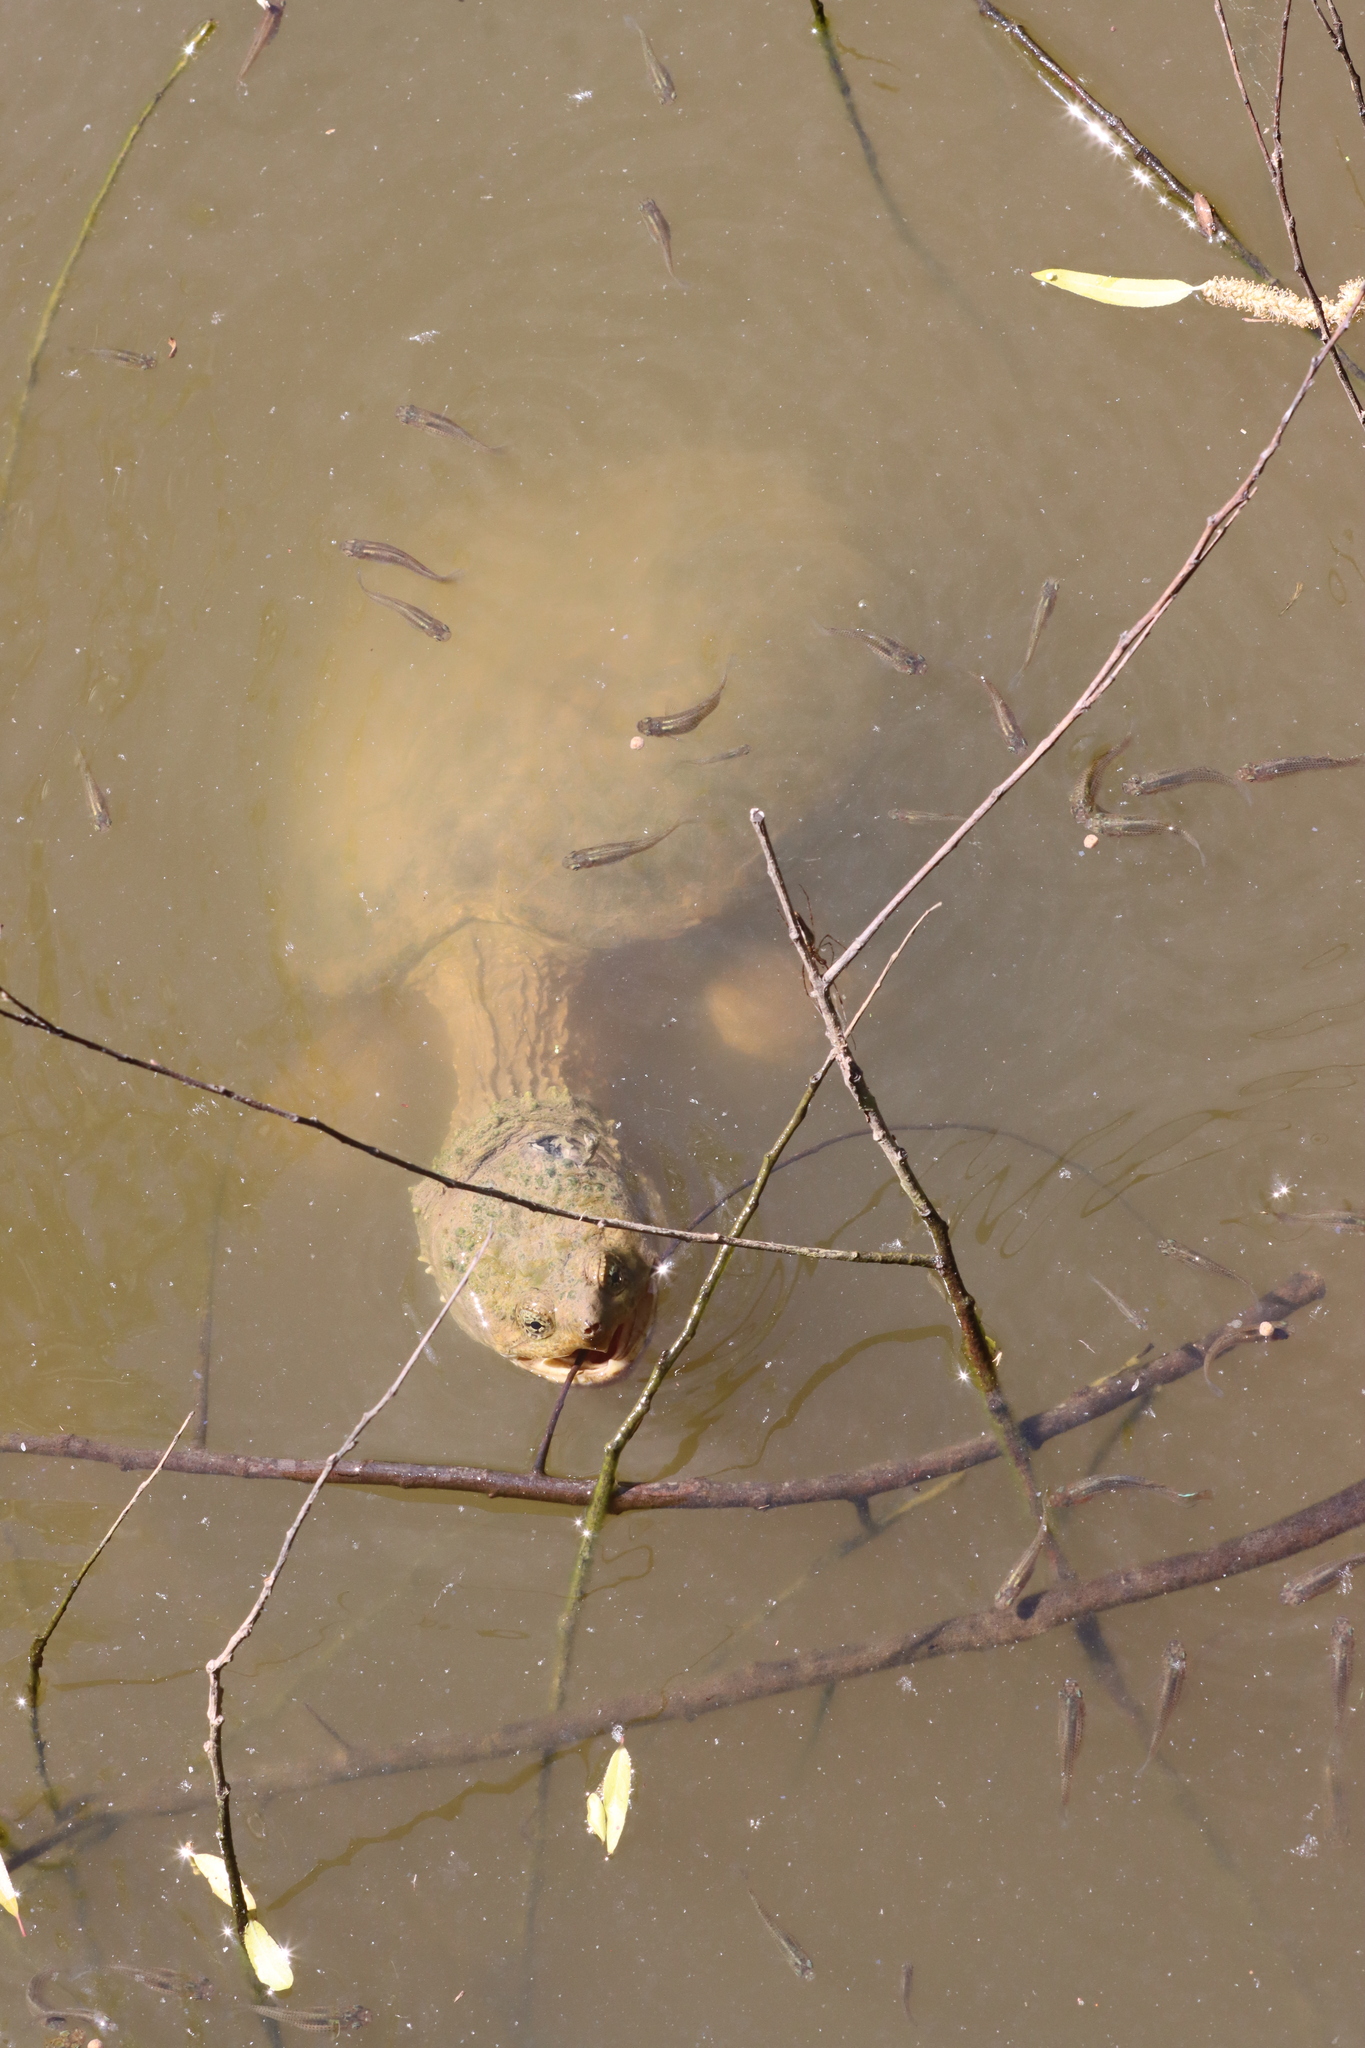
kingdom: Animalia
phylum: Chordata
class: Testudines
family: Chelydridae
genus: Chelydra
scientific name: Chelydra serpentina
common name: Common snapping turtle
